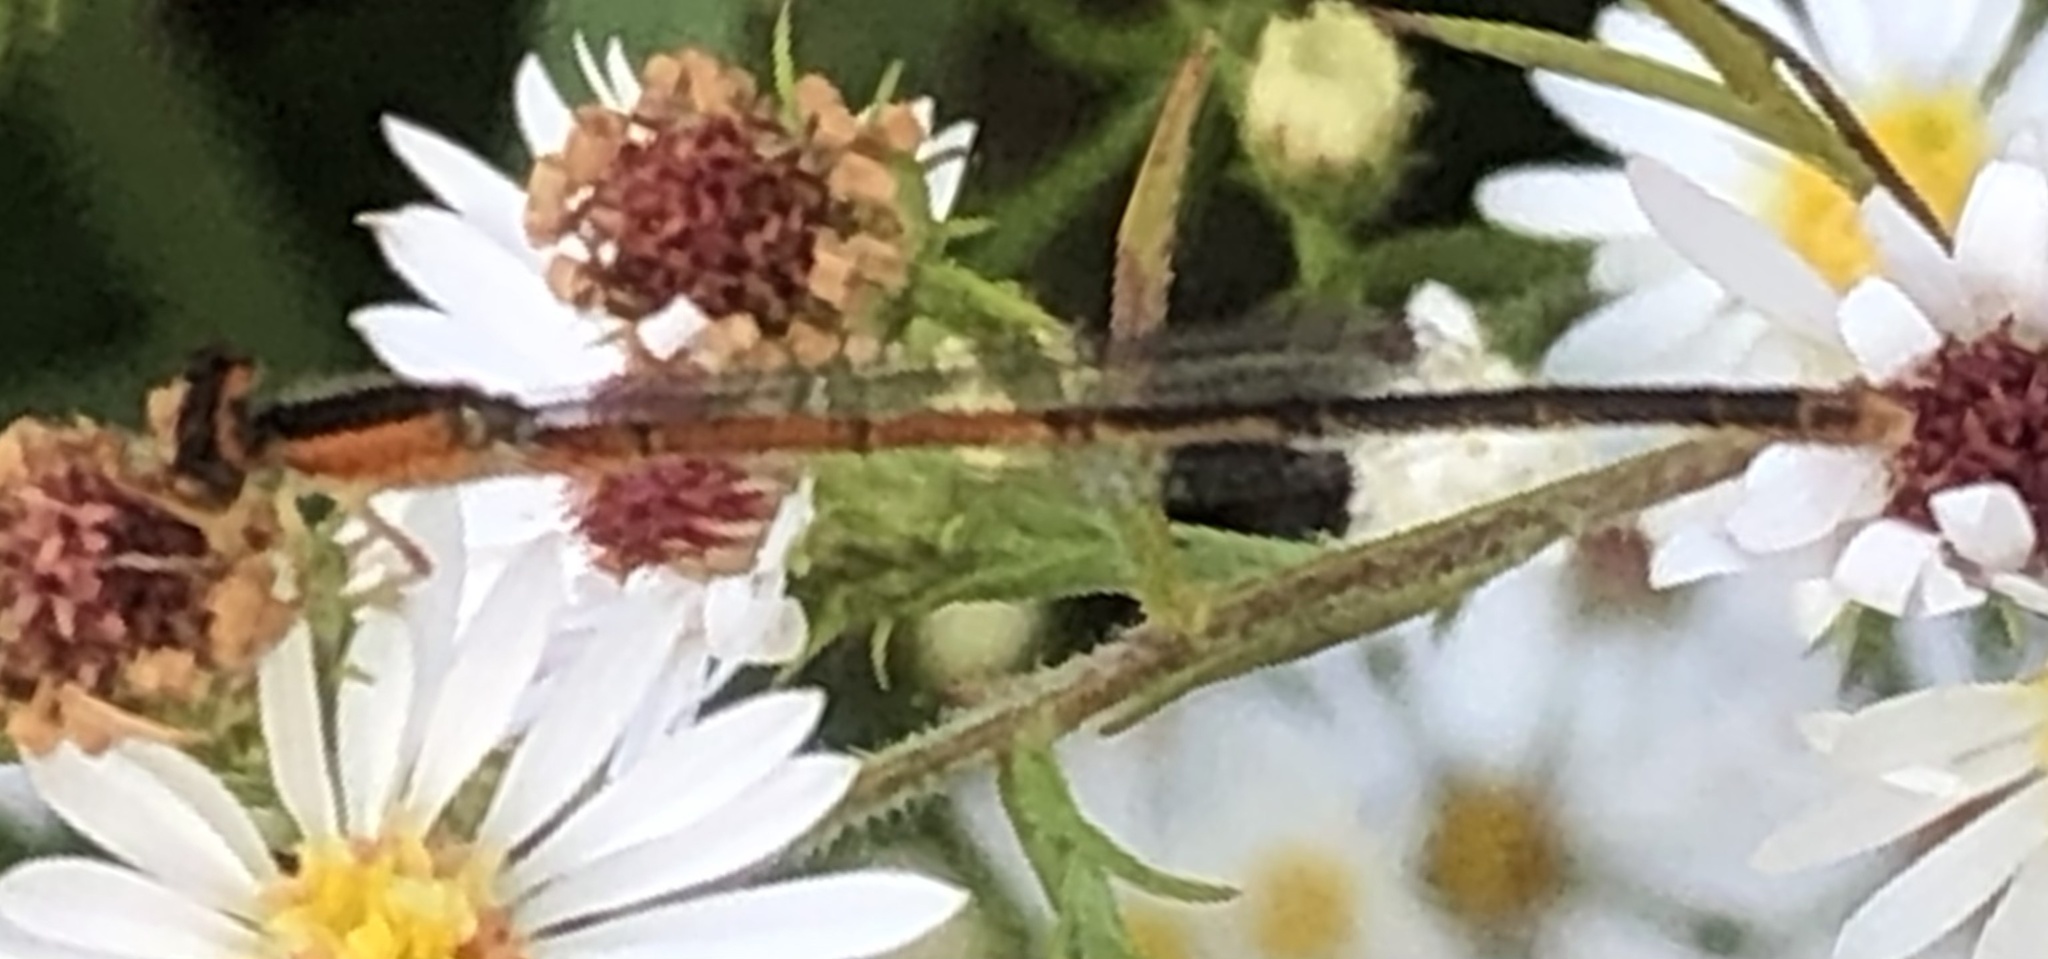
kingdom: Animalia
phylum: Arthropoda
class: Insecta
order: Odonata
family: Coenagrionidae
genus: Ischnura
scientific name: Ischnura hastata
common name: Citrine forktail
